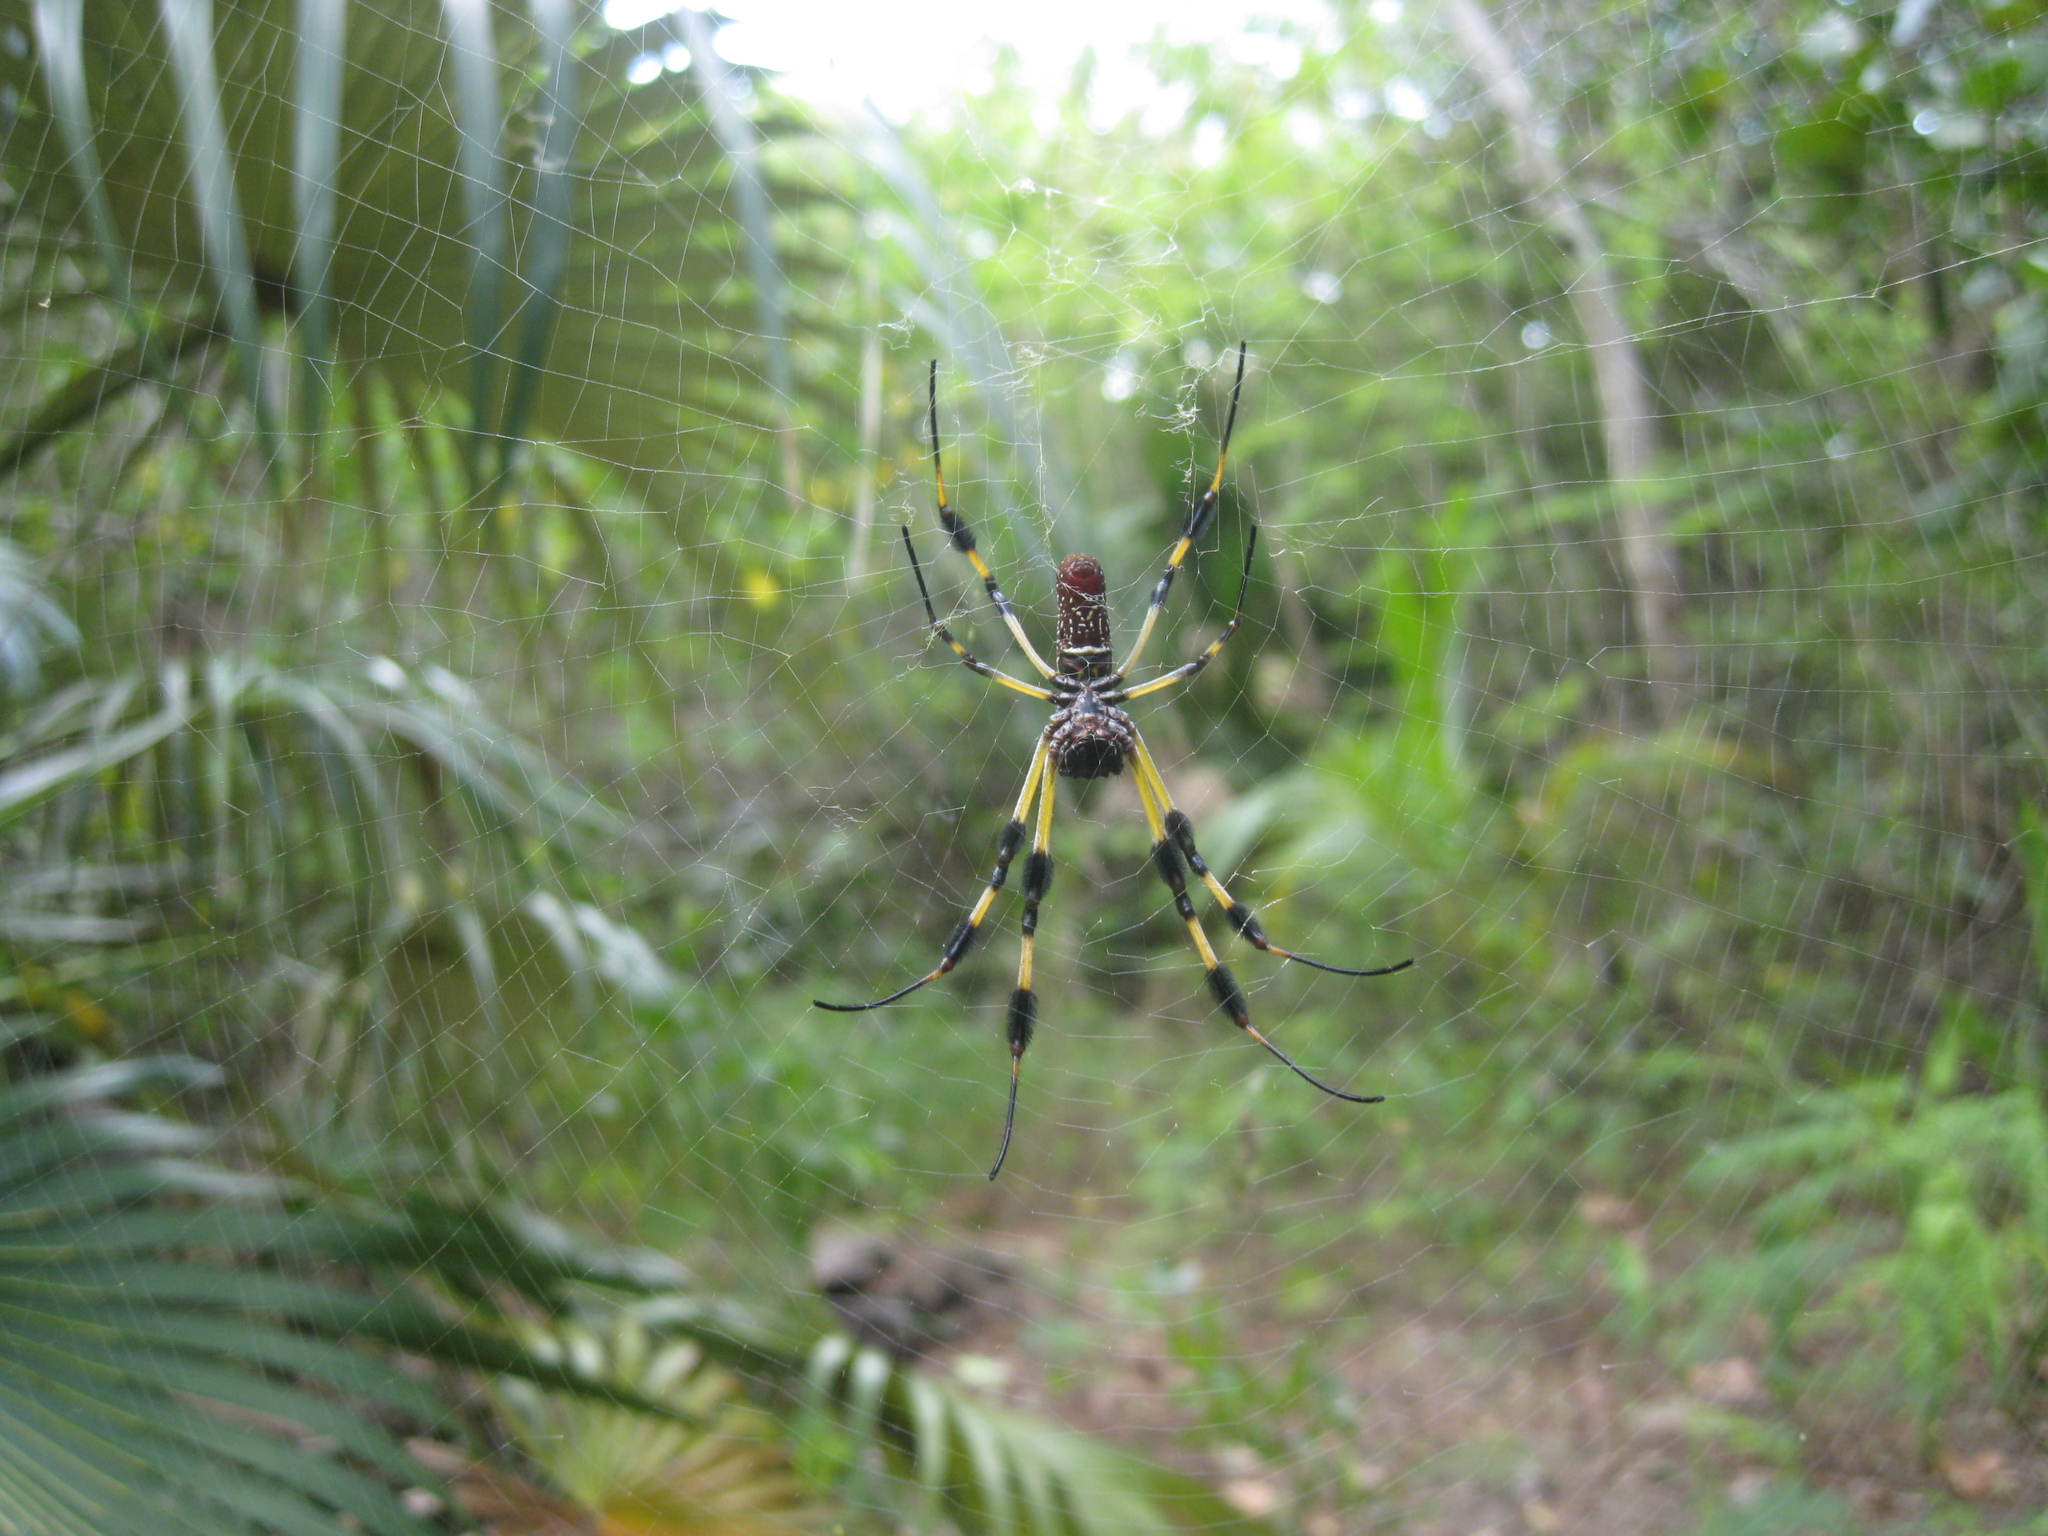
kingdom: Animalia
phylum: Arthropoda
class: Arachnida
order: Araneae
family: Araneidae
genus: Trichonephila
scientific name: Trichonephila clavipes
